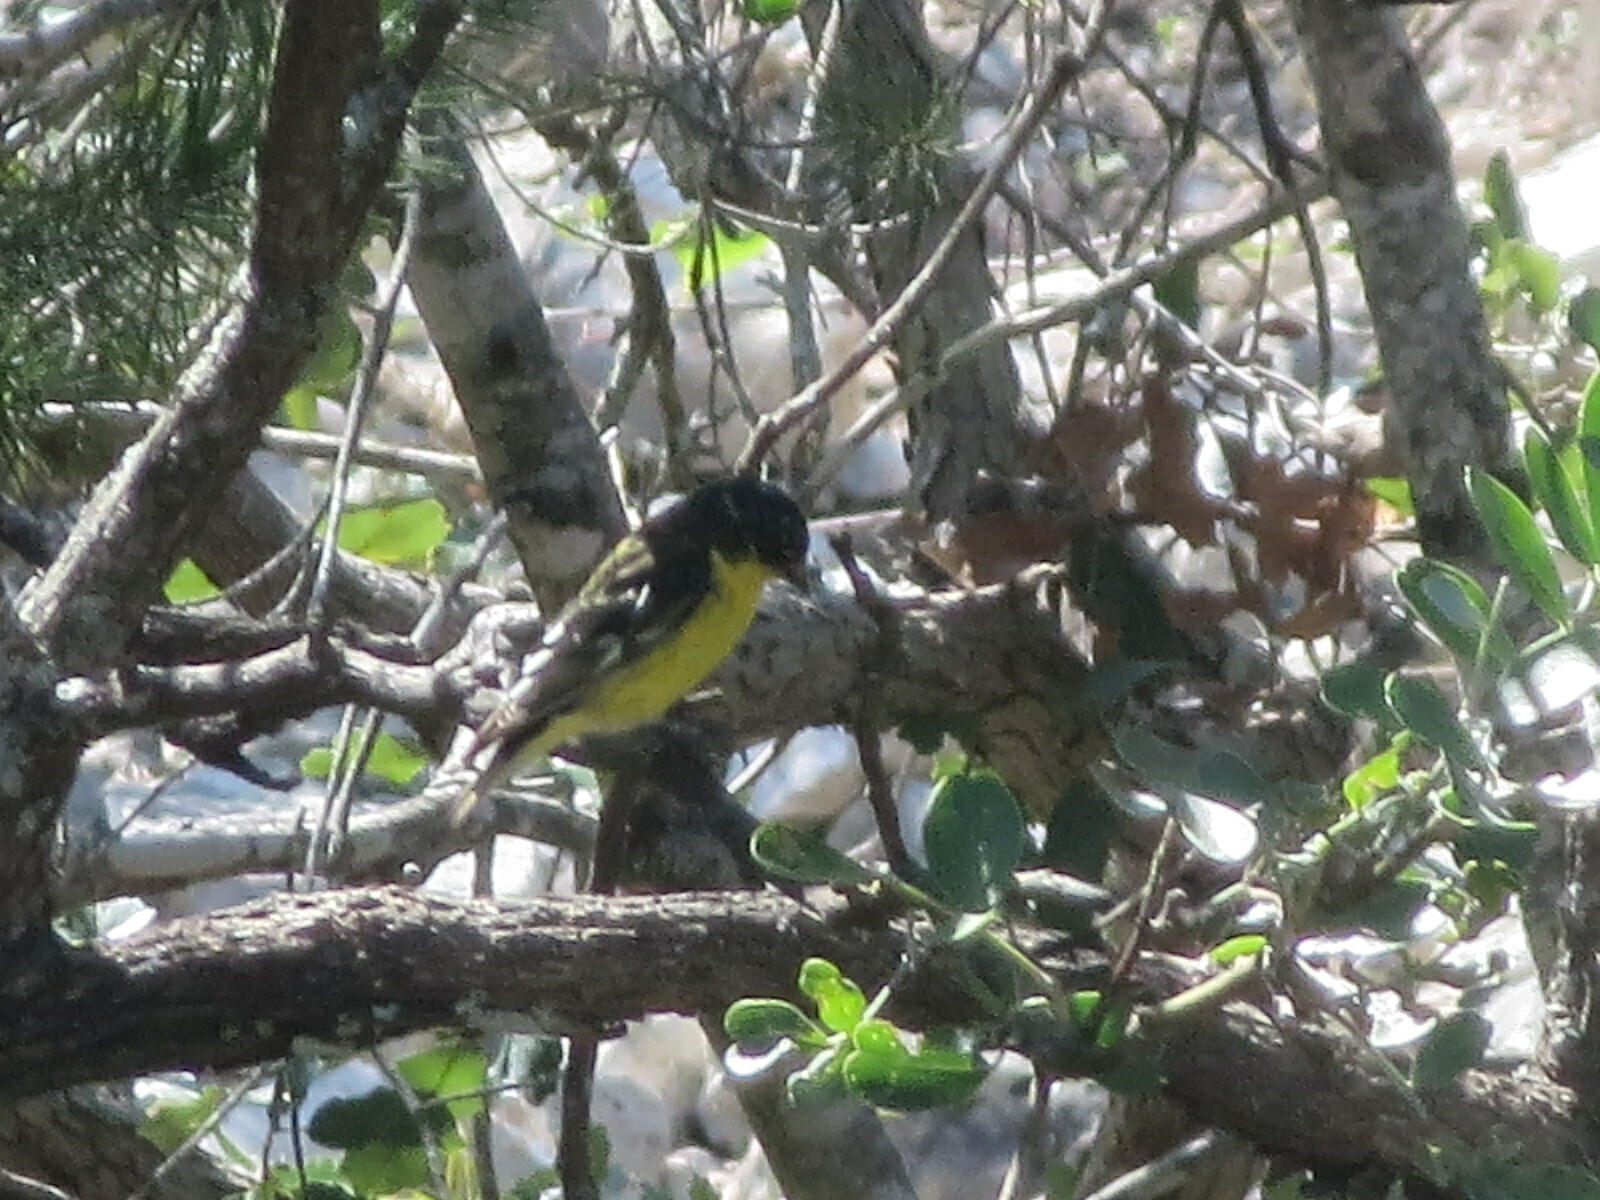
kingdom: Animalia
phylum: Chordata
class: Aves
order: Passeriformes
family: Fringillidae
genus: Spinus
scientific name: Spinus psaltria
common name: Lesser goldfinch
